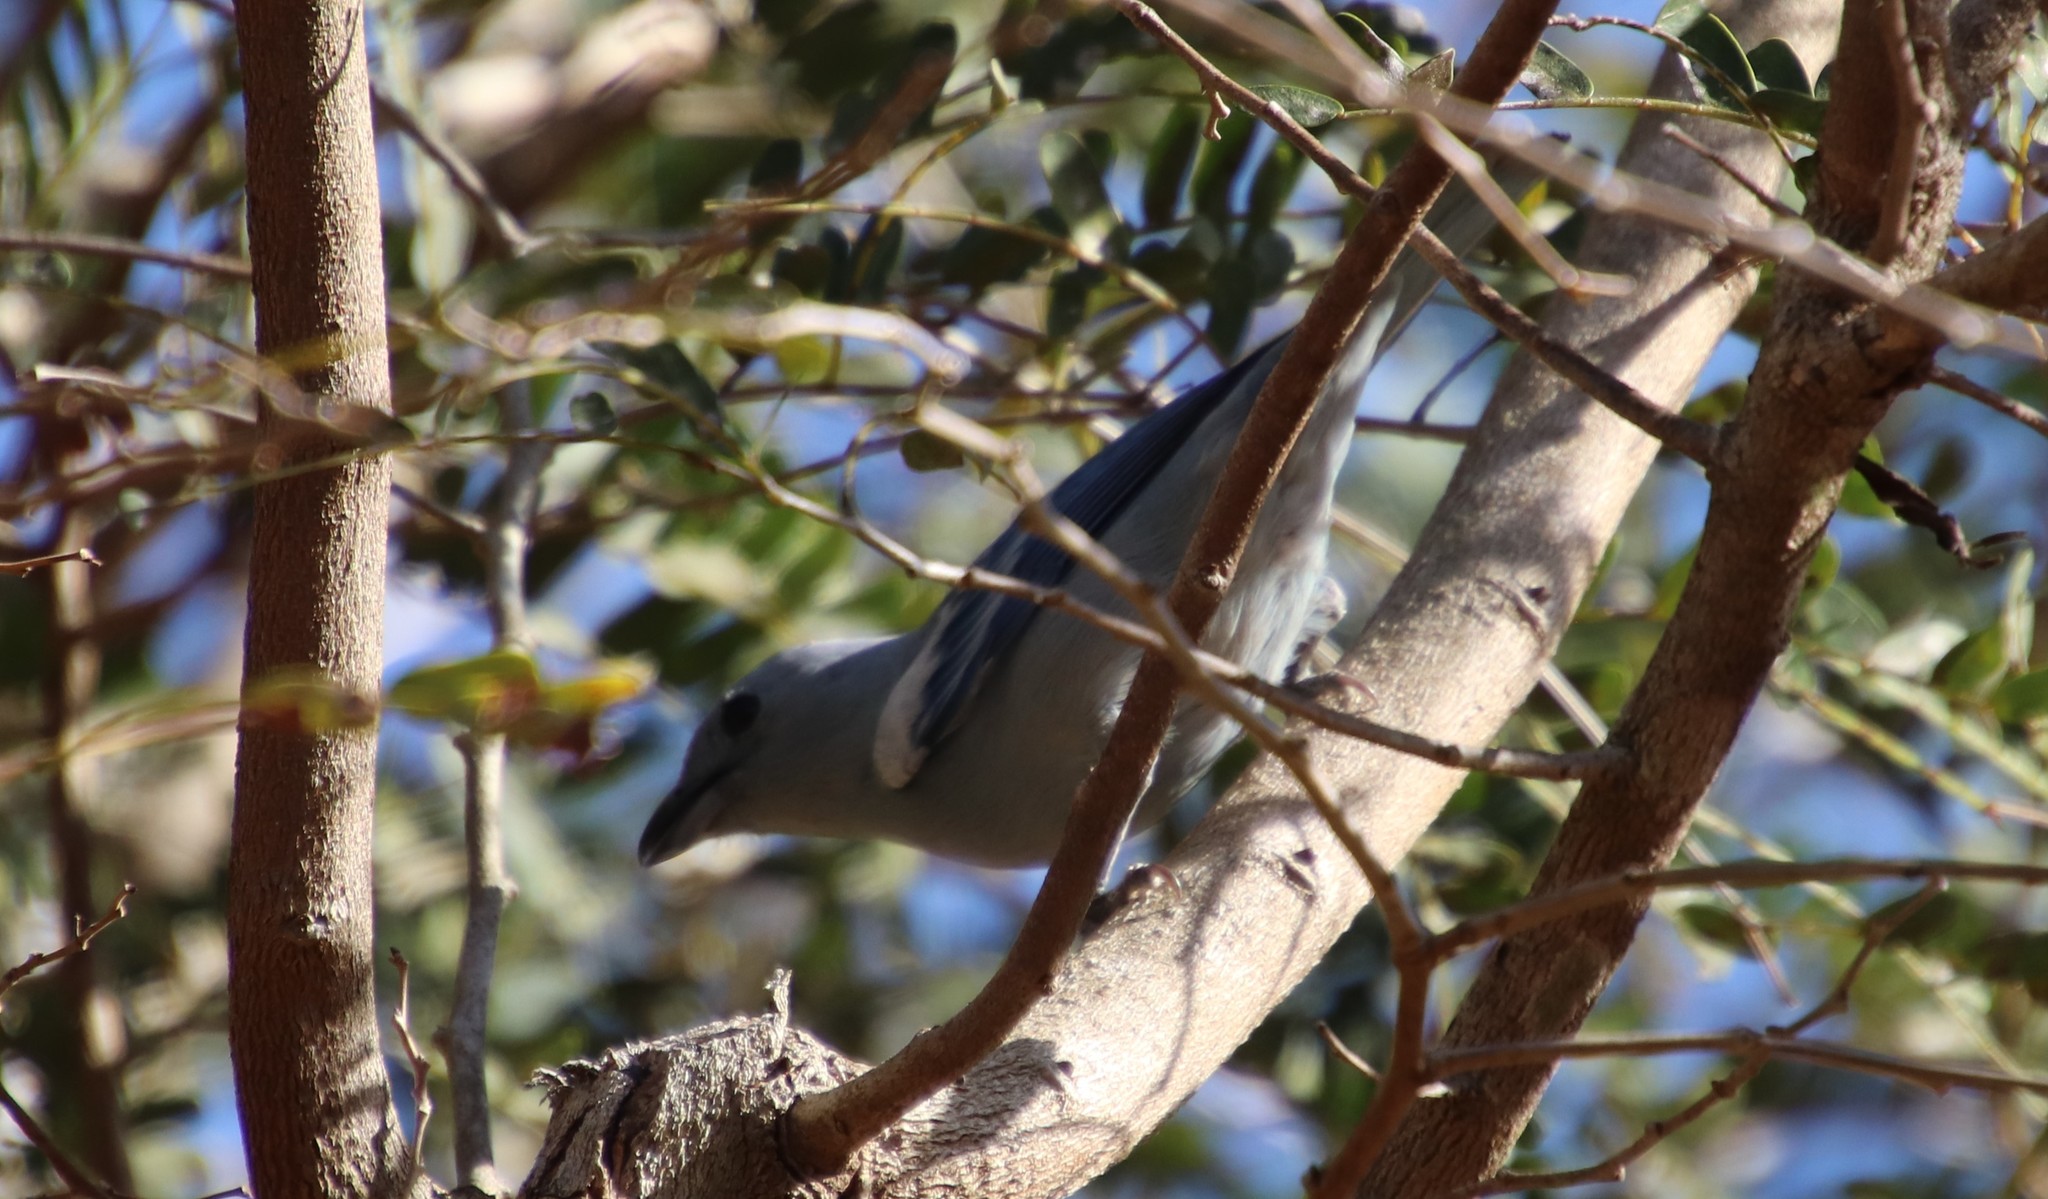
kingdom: Animalia
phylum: Chordata
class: Aves
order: Passeriformes
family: Thraupidae
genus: Thraupis
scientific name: Thraupis episcopus
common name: Blue-grey tanager
